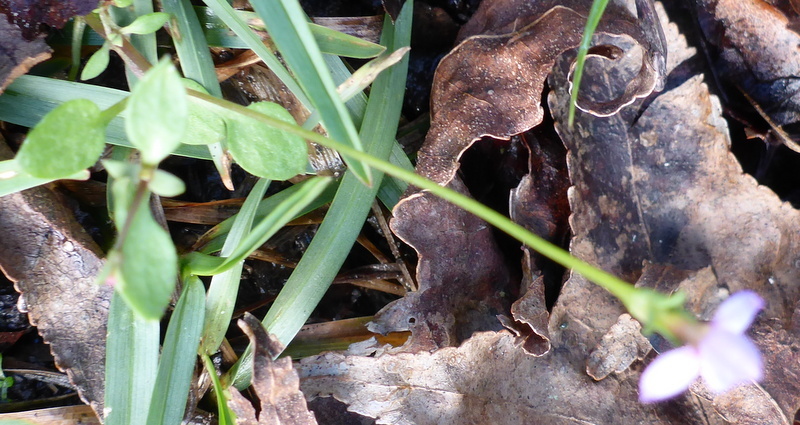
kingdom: Plantae
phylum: Tracheophyta
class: Magnoliopsida
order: Gentianales
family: Rubiaceae
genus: Houstonia
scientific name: Houstonia pusilla
